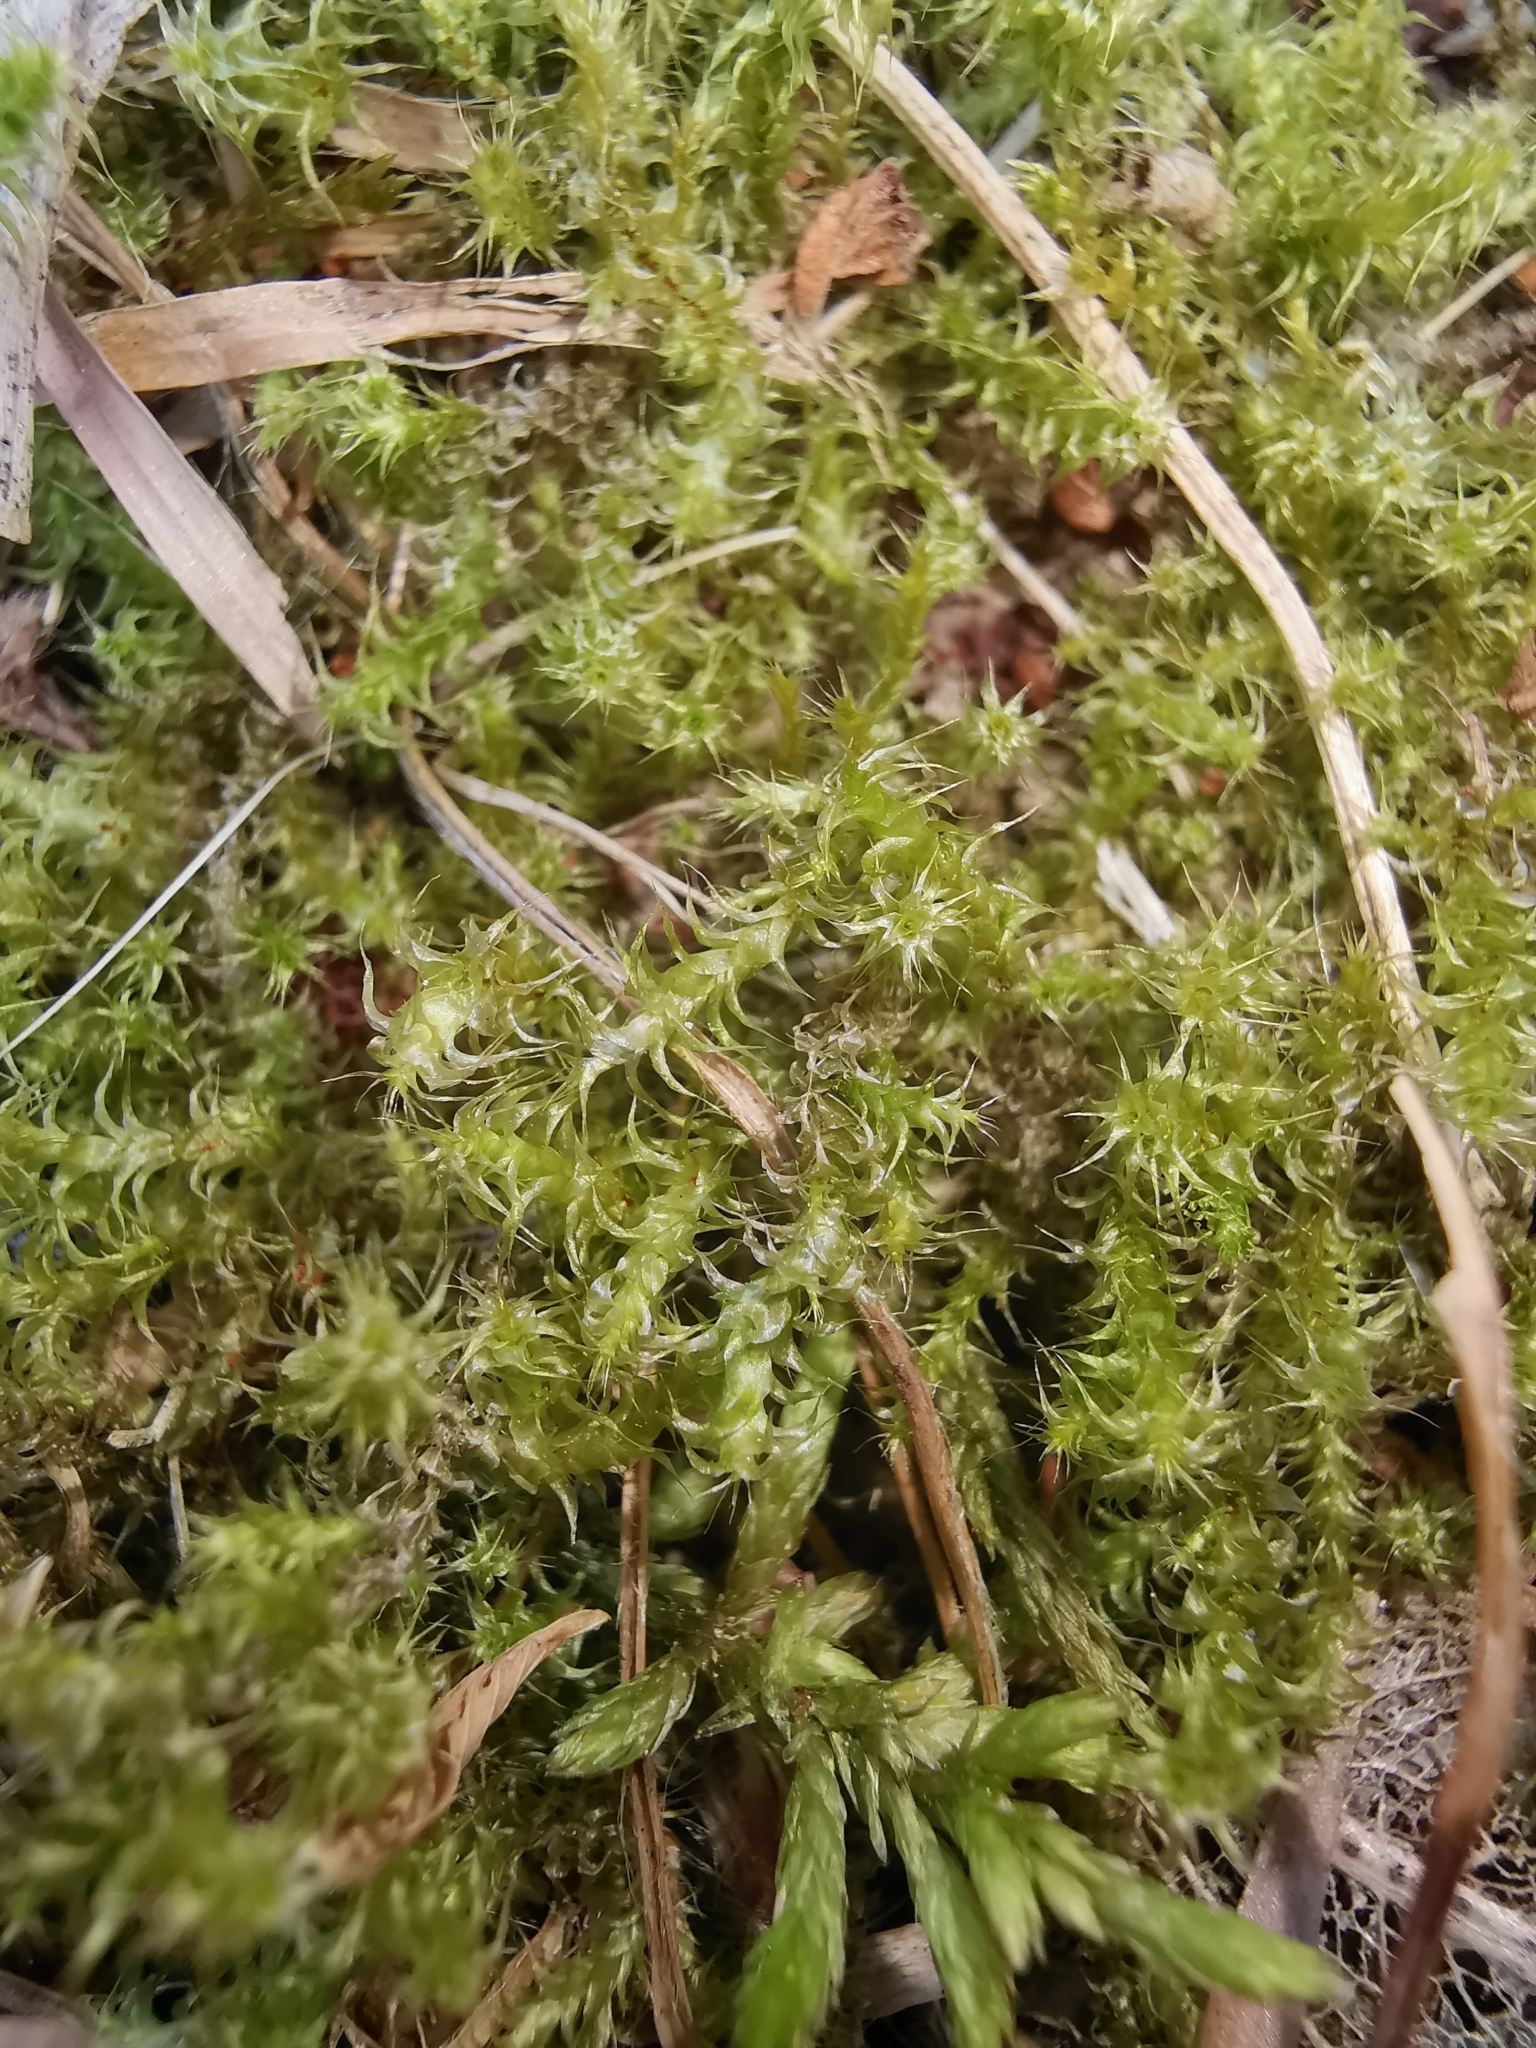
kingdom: Plantae
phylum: Bryophyta
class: Bryopsida
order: Hypnales
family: Hylocomiaceae
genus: Rhytidiadelphus
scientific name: Rhytidiadelphus squarrosus
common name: Springy turf-moss
